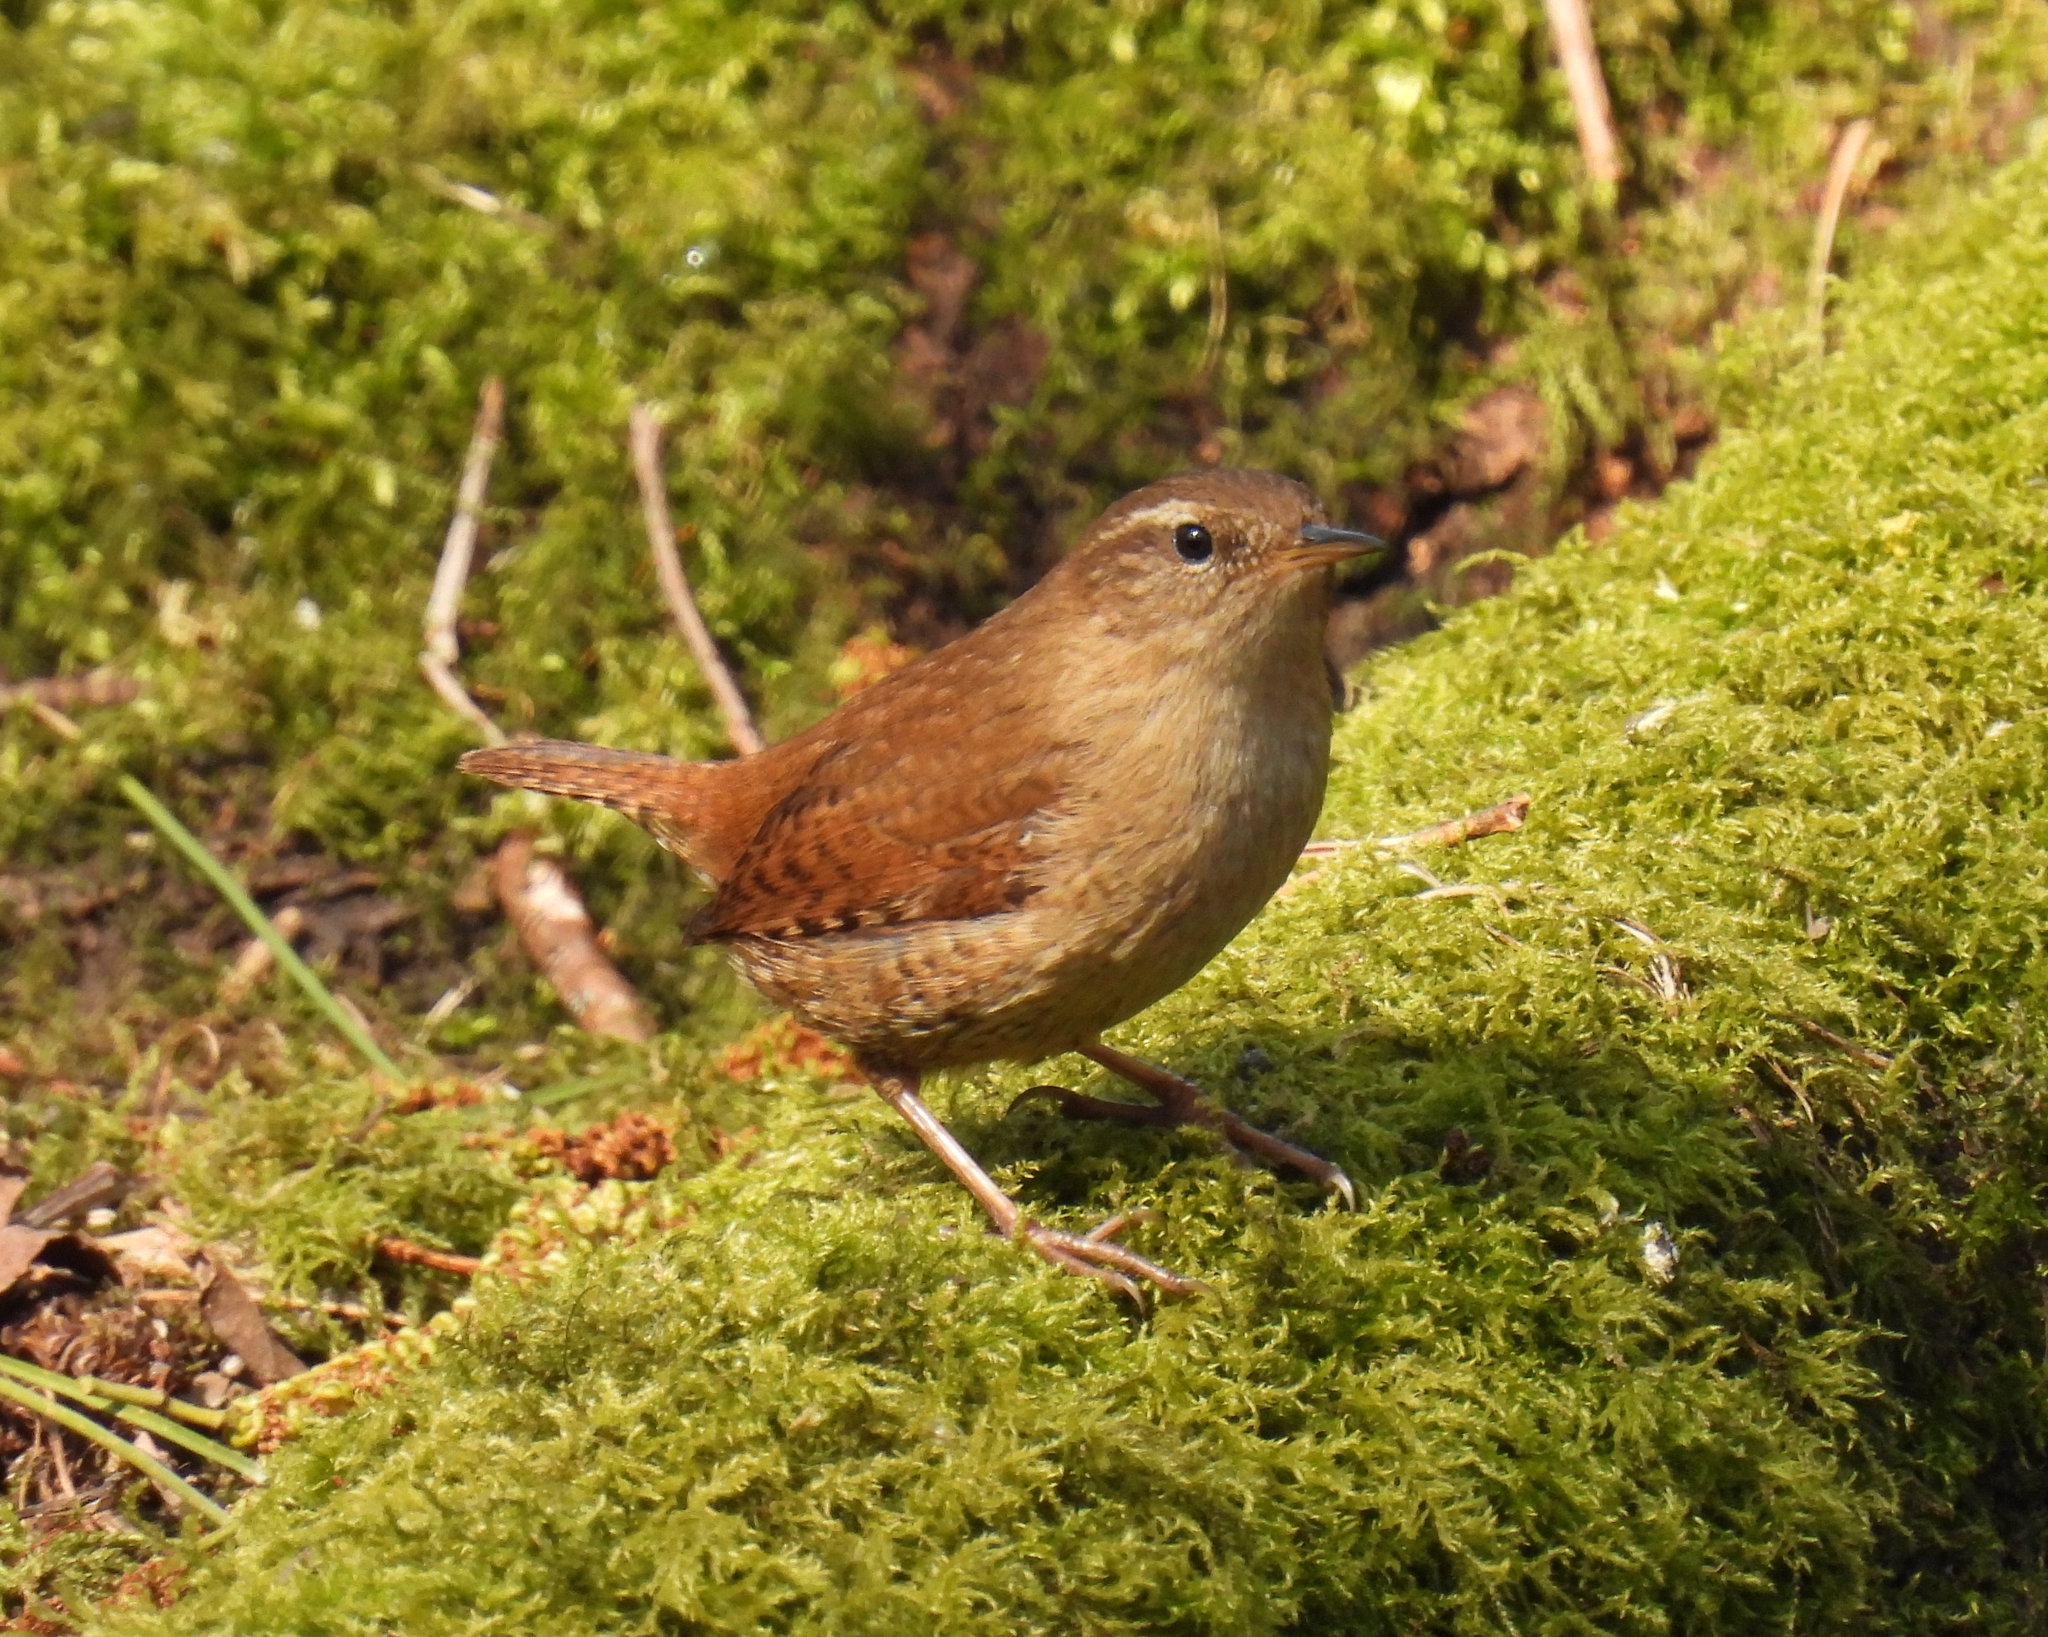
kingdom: Animalia
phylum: Chordata
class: Aves
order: Passeriformes
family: Troglodytidae
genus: Troglodytes
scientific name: Troglodytes troglodytes
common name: Eurasian wren
